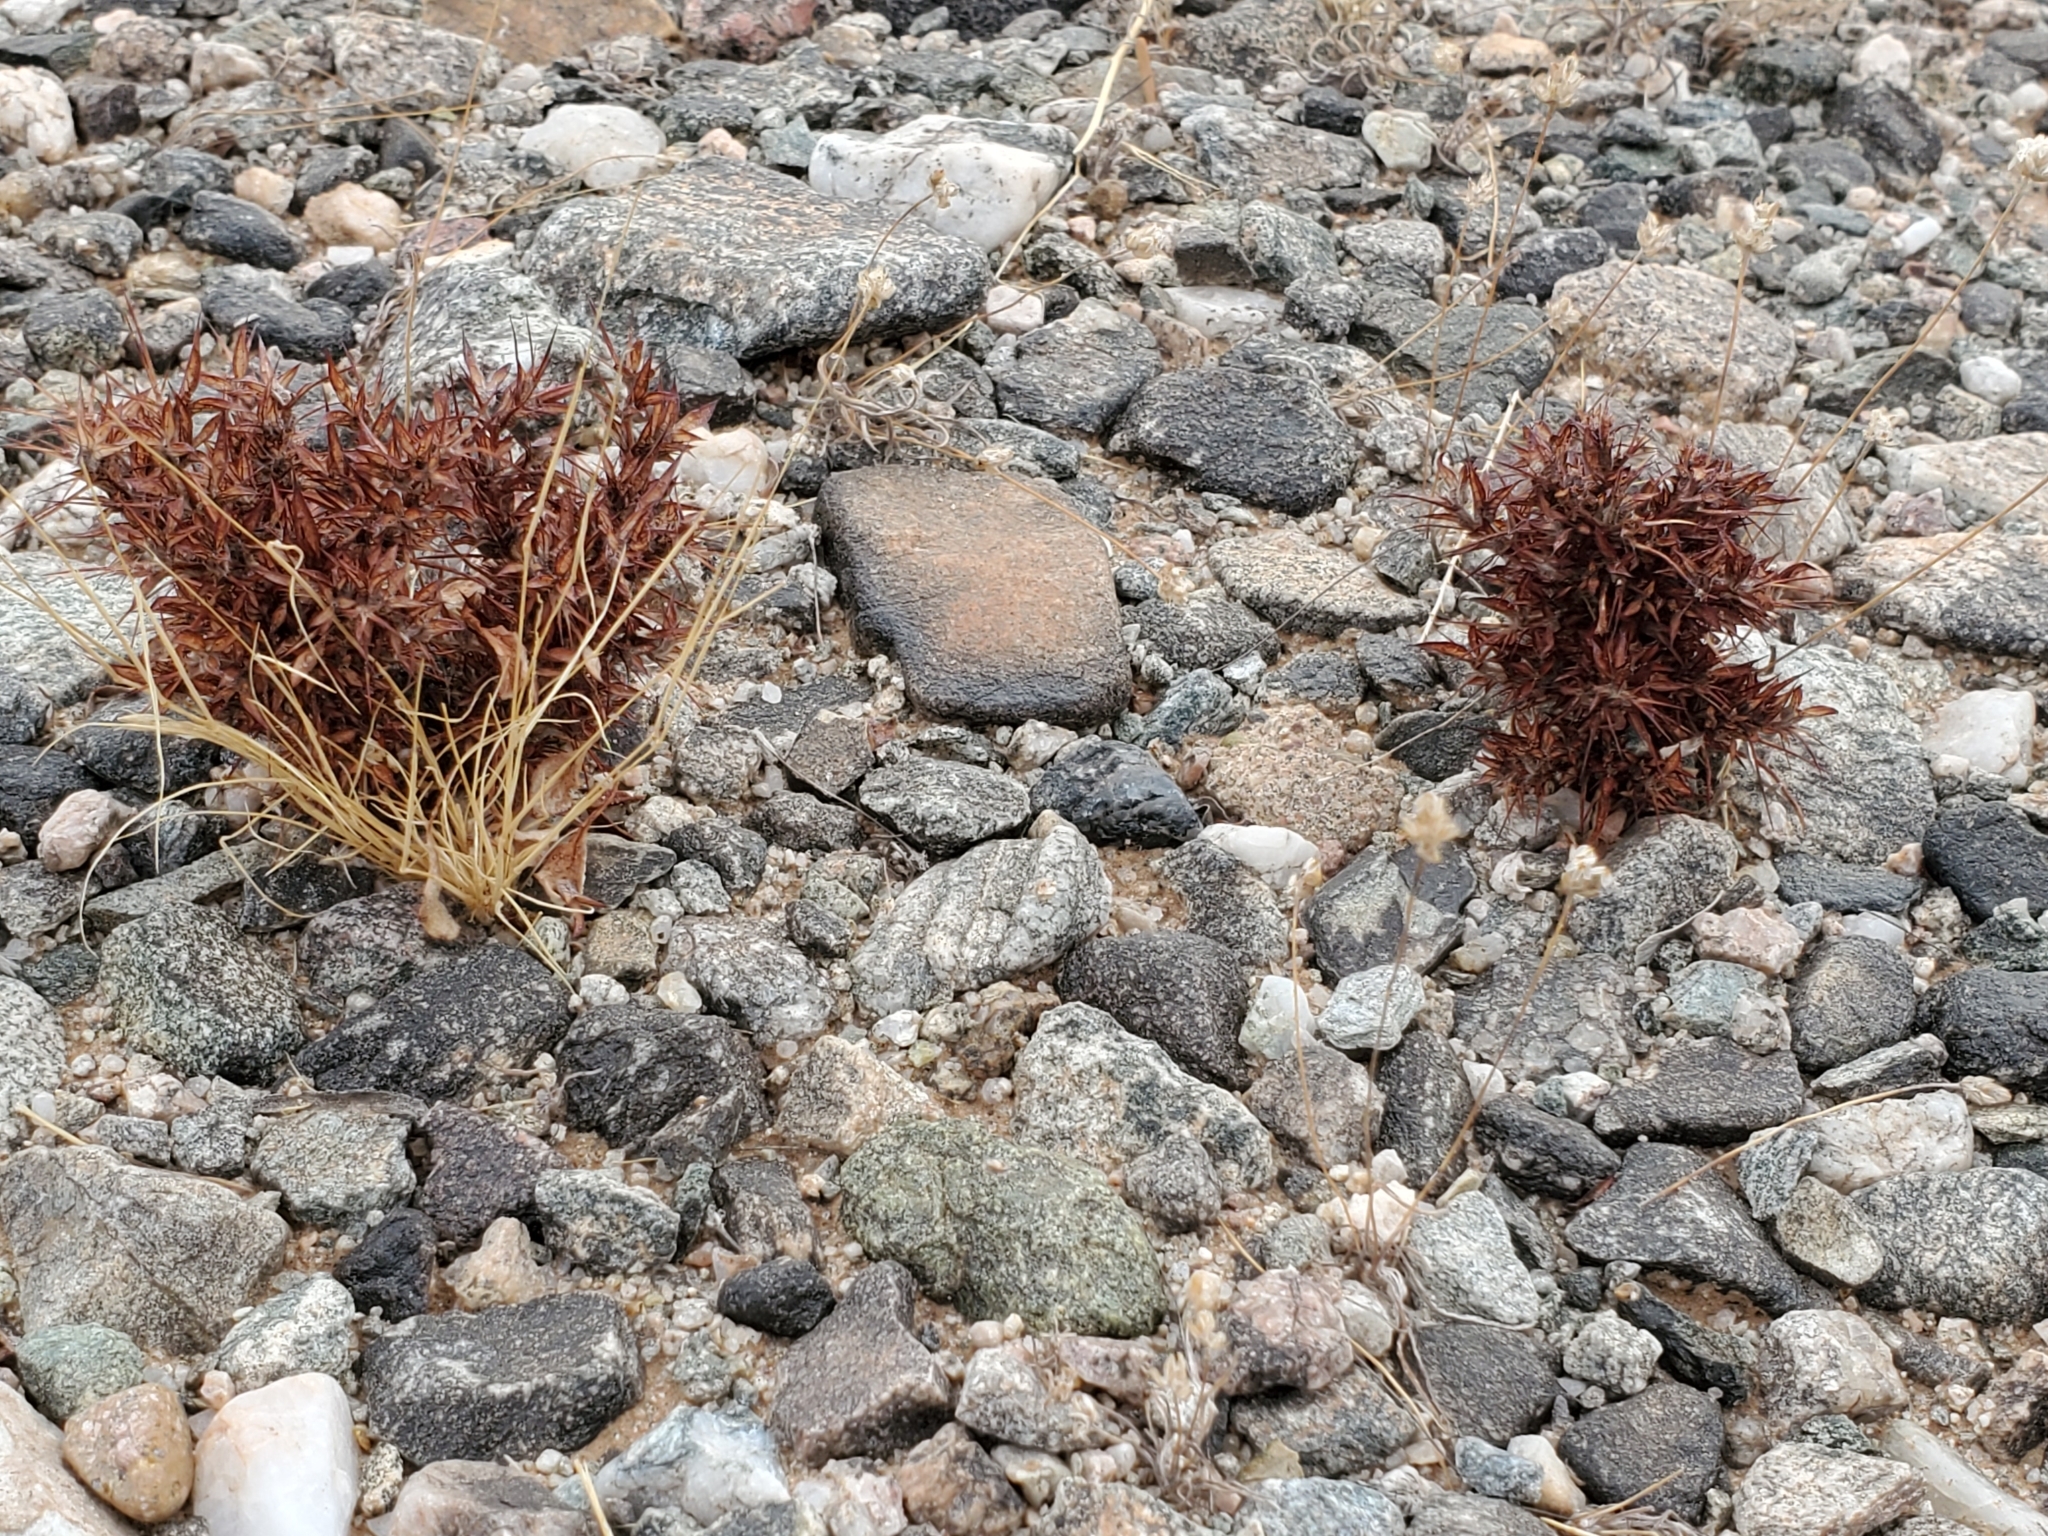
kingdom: Plantae
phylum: Tracheophyta
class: Magnoliopsida
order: Caryophyllales
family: Polygonaceae
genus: Chorizanthe
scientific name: Chorizanthe rigida
